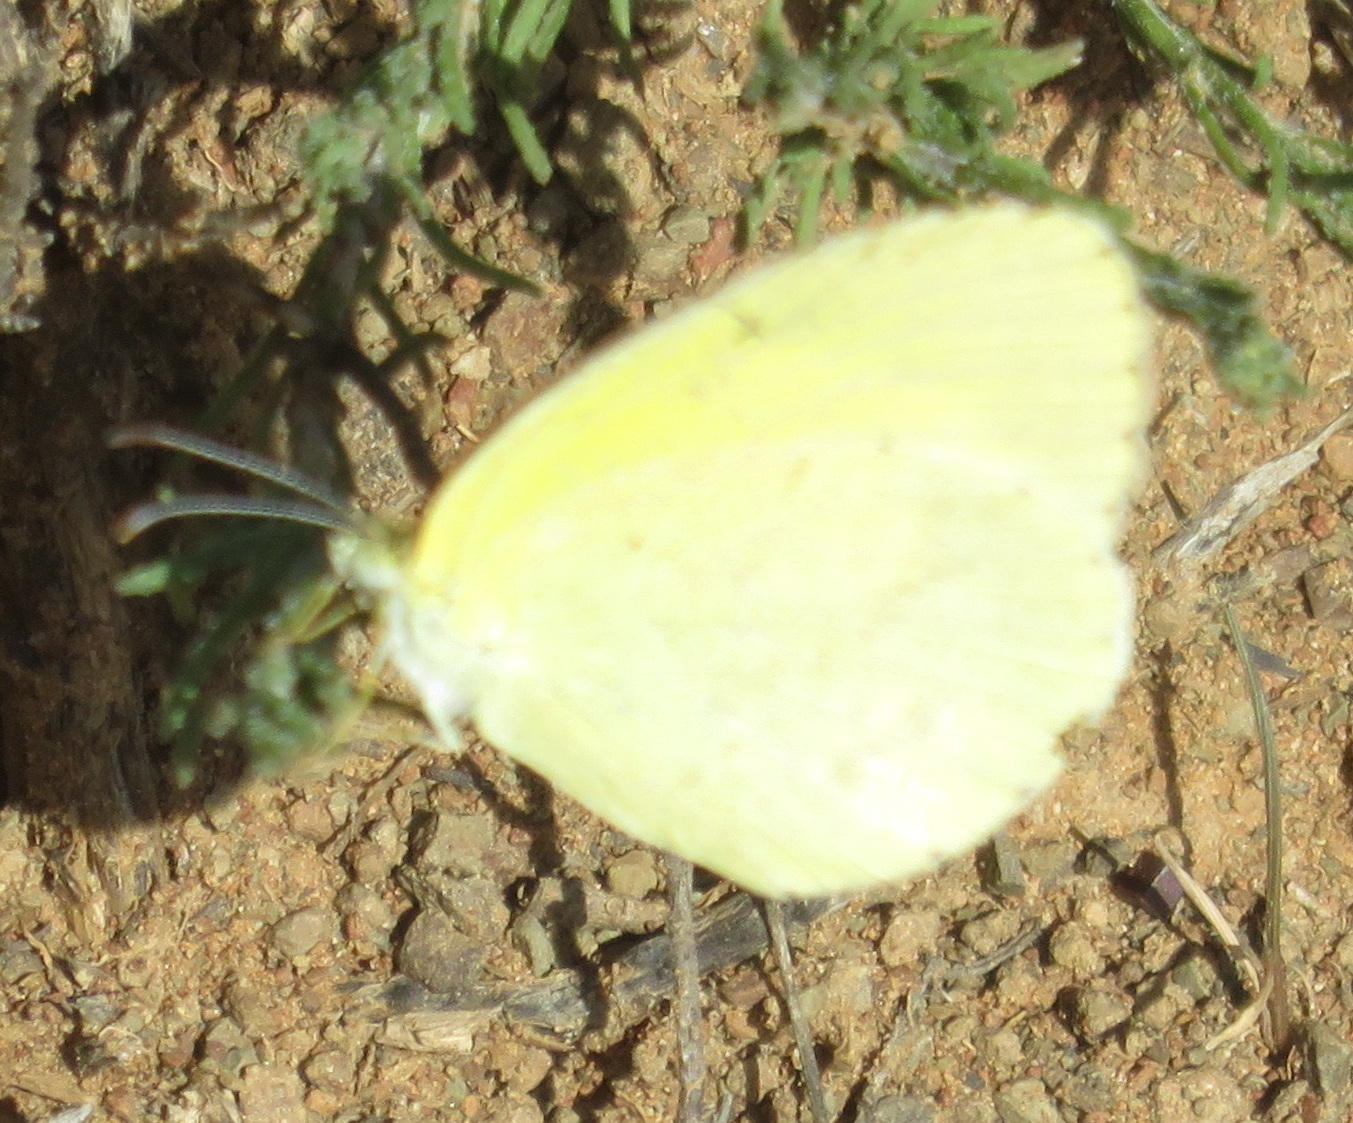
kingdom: Animalia
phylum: Arthropoda
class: Insecta
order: Lepidoptera
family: Pieridae
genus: Eurema
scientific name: Eurema brigitta
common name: Small grass yellow
